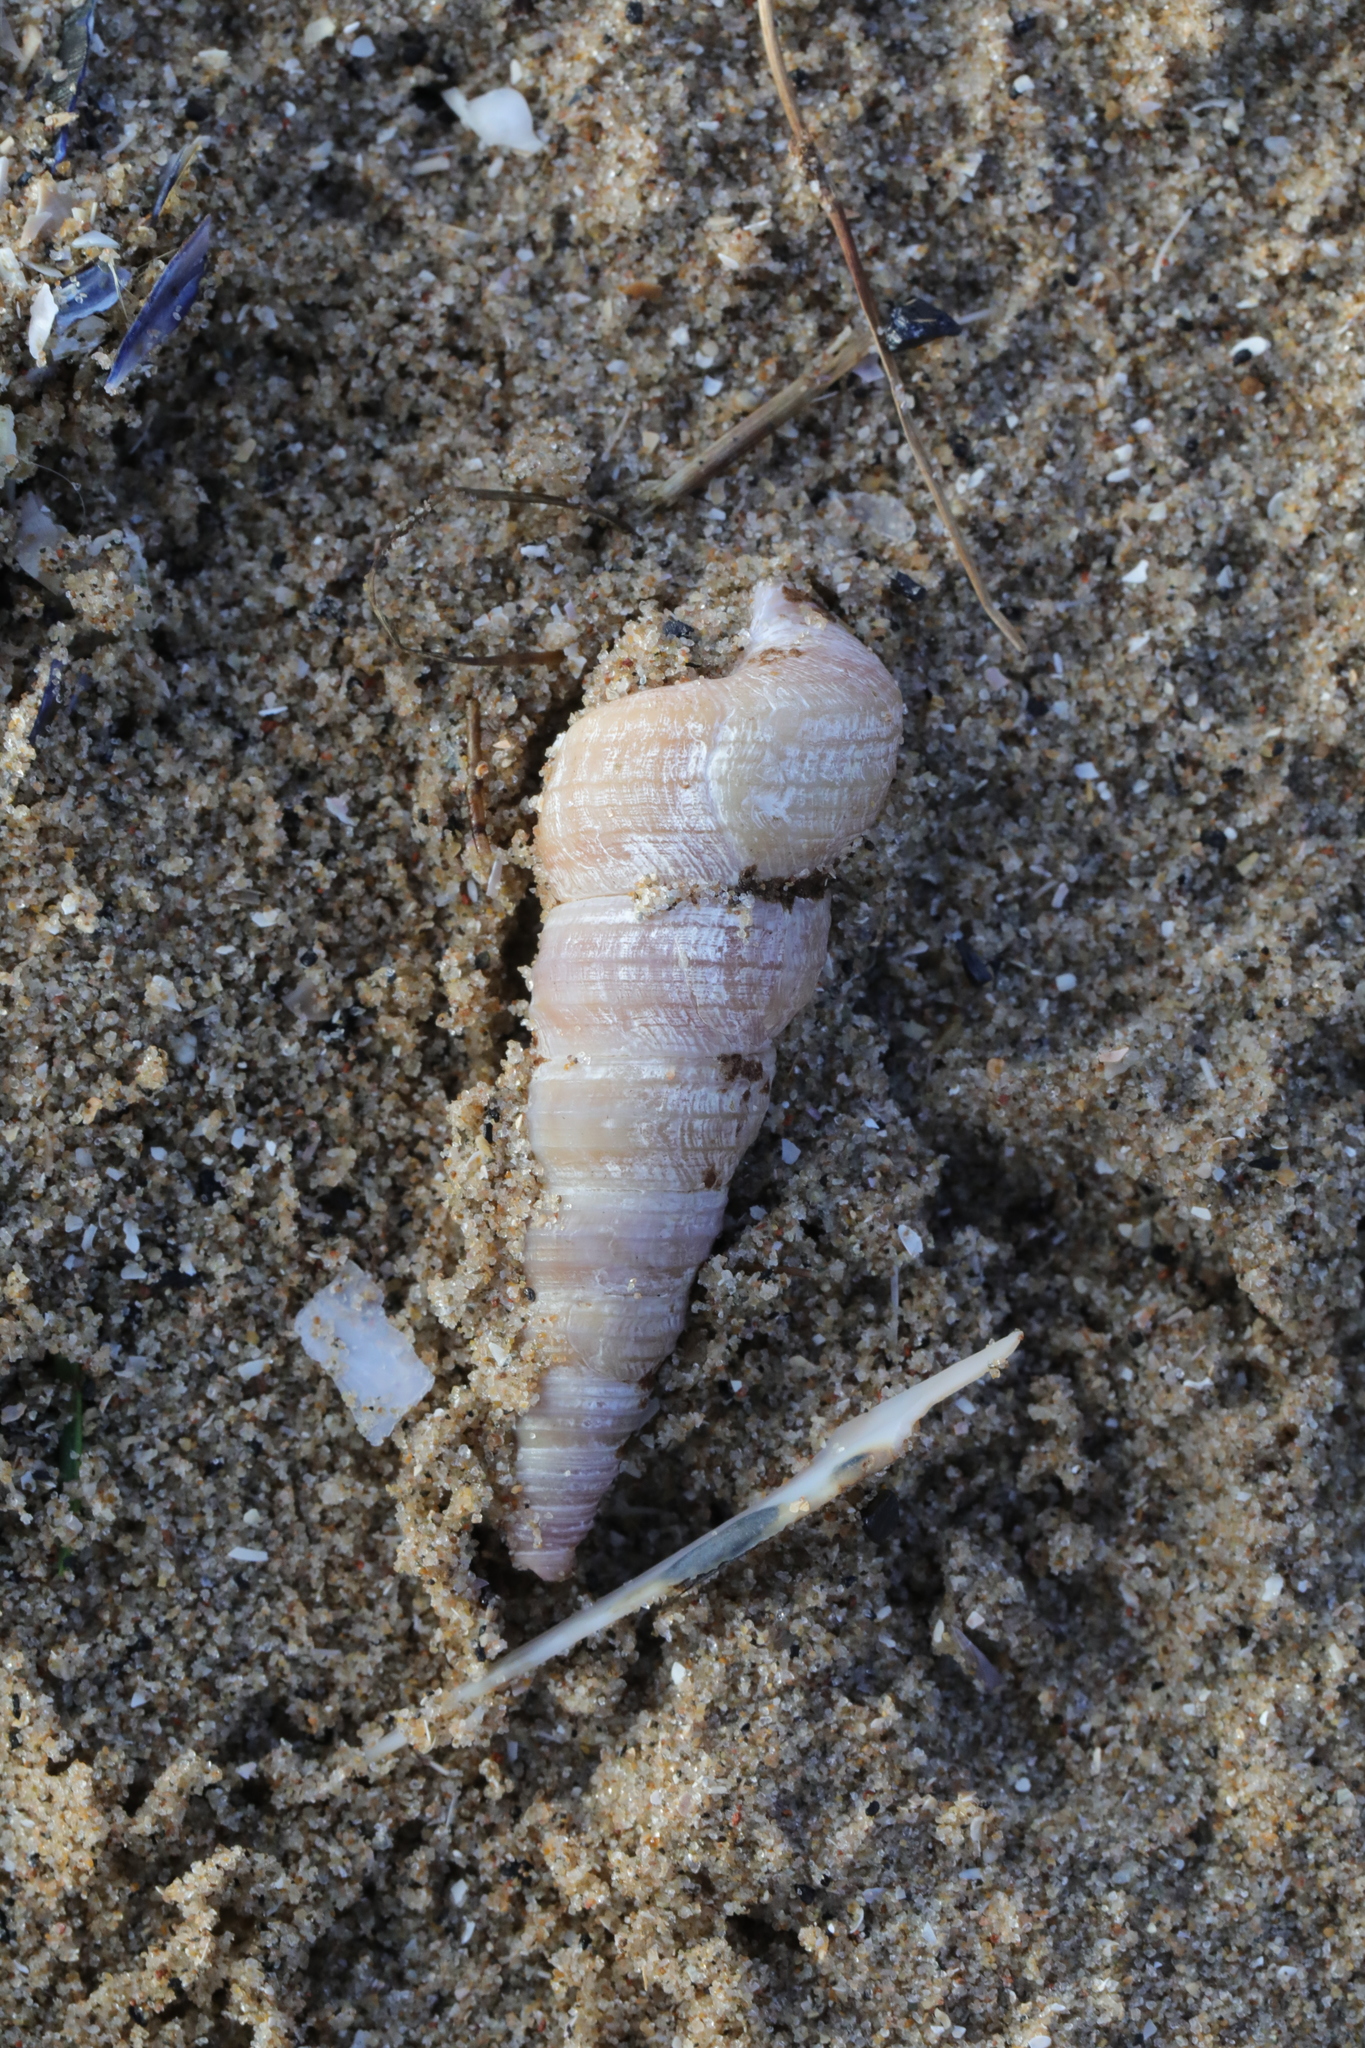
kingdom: Animalia
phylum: Mollusca
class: Gastropoda
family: Turritellidae
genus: Turritellinella
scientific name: Turritellinella tricarinata
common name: Auger shell
